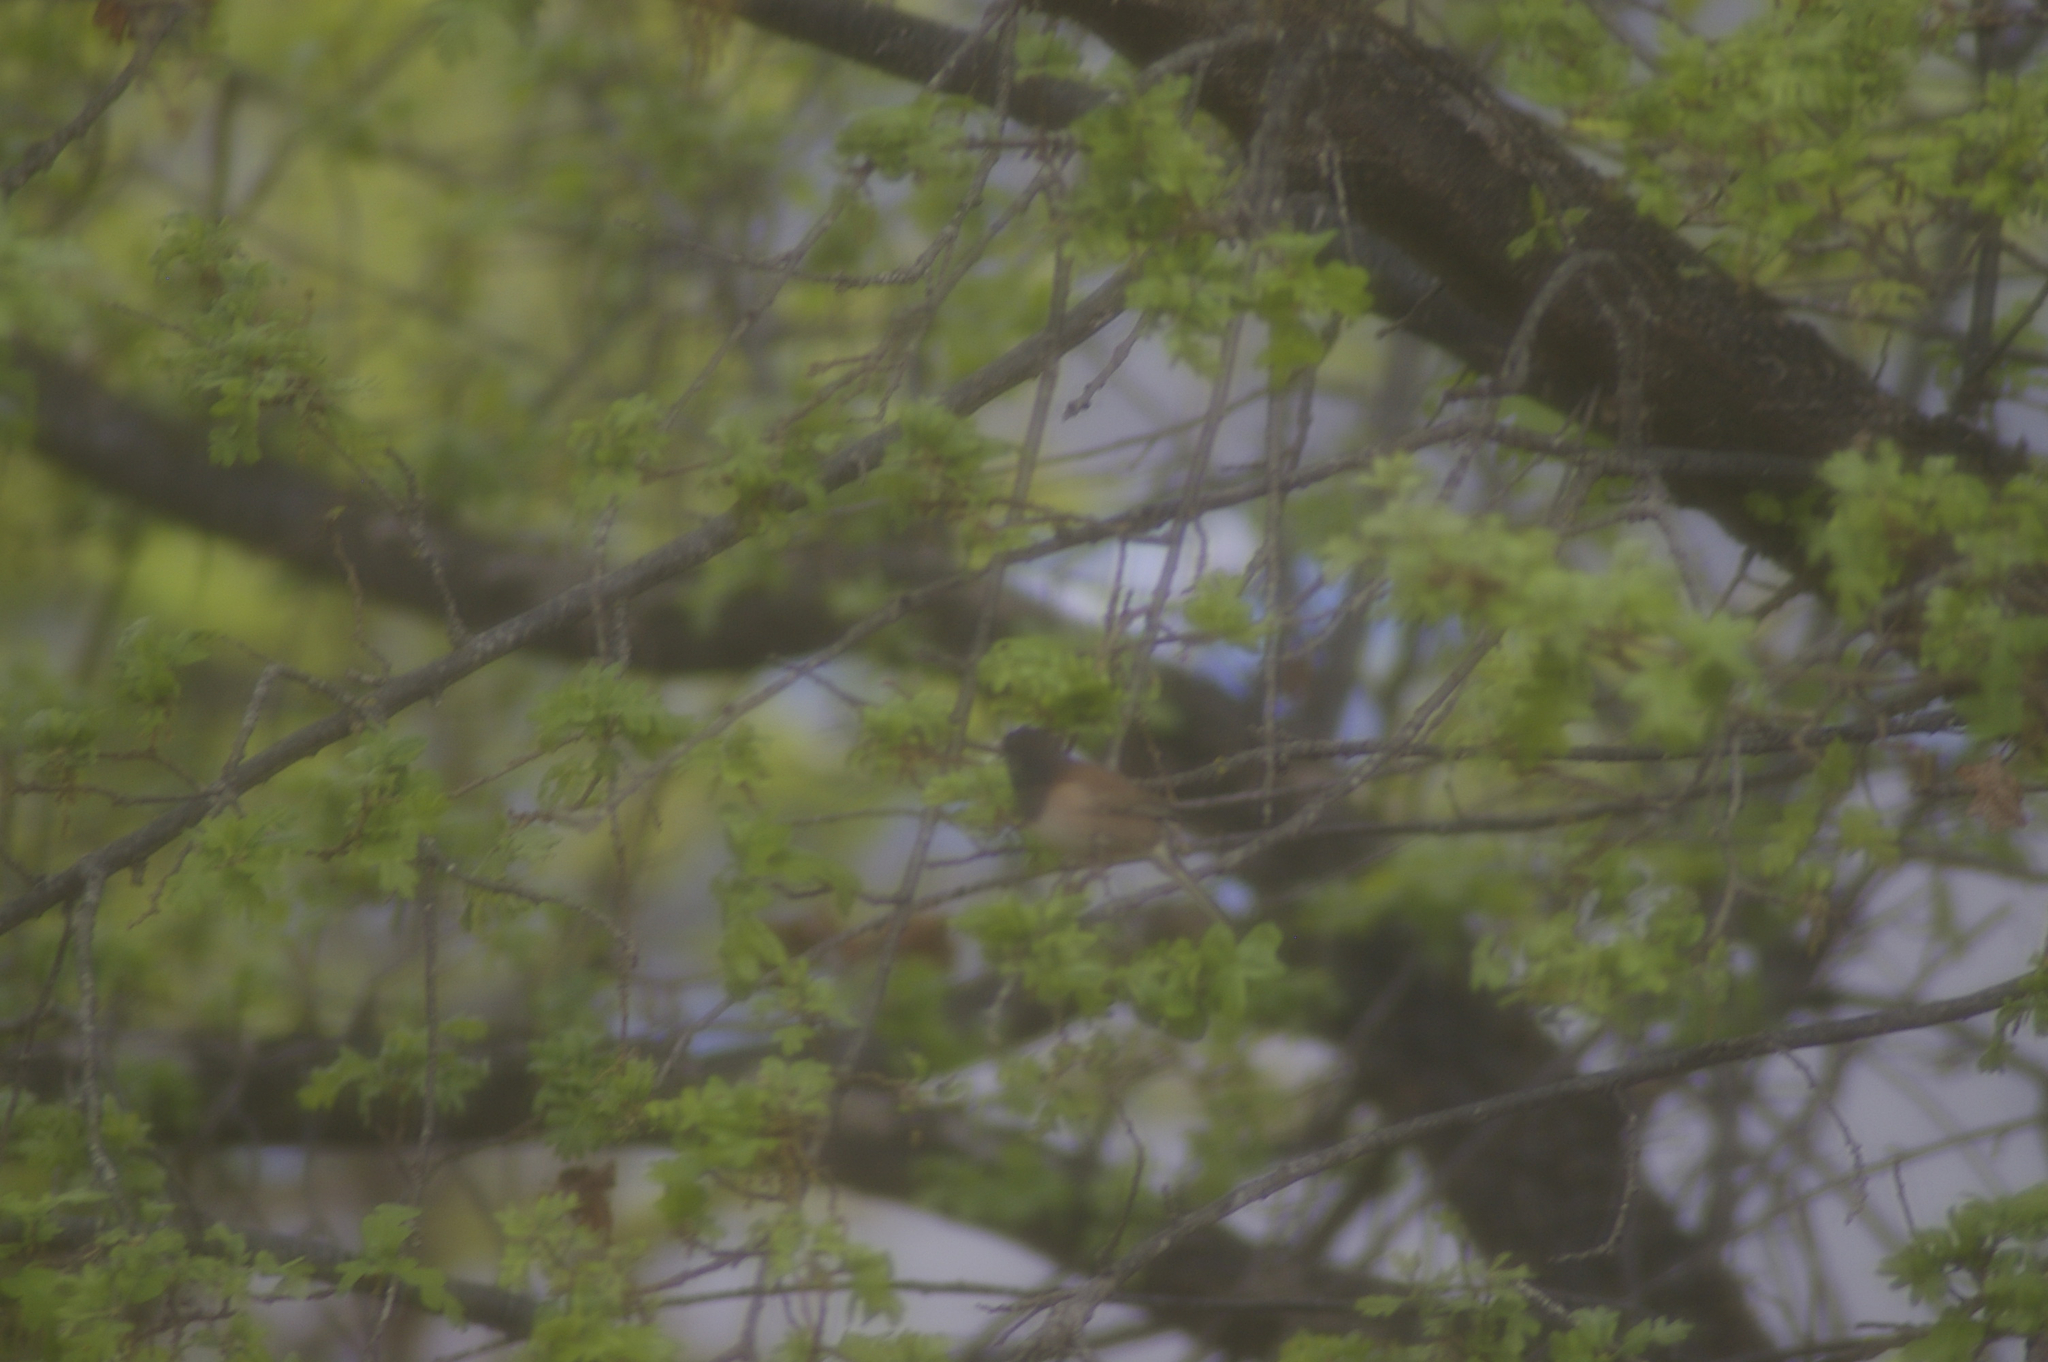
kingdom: Animalia
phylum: Chordata
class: Aves
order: Passeriformes
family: Passerellidae
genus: Junco
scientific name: Junco hyemalis
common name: Dark-eyed junco
